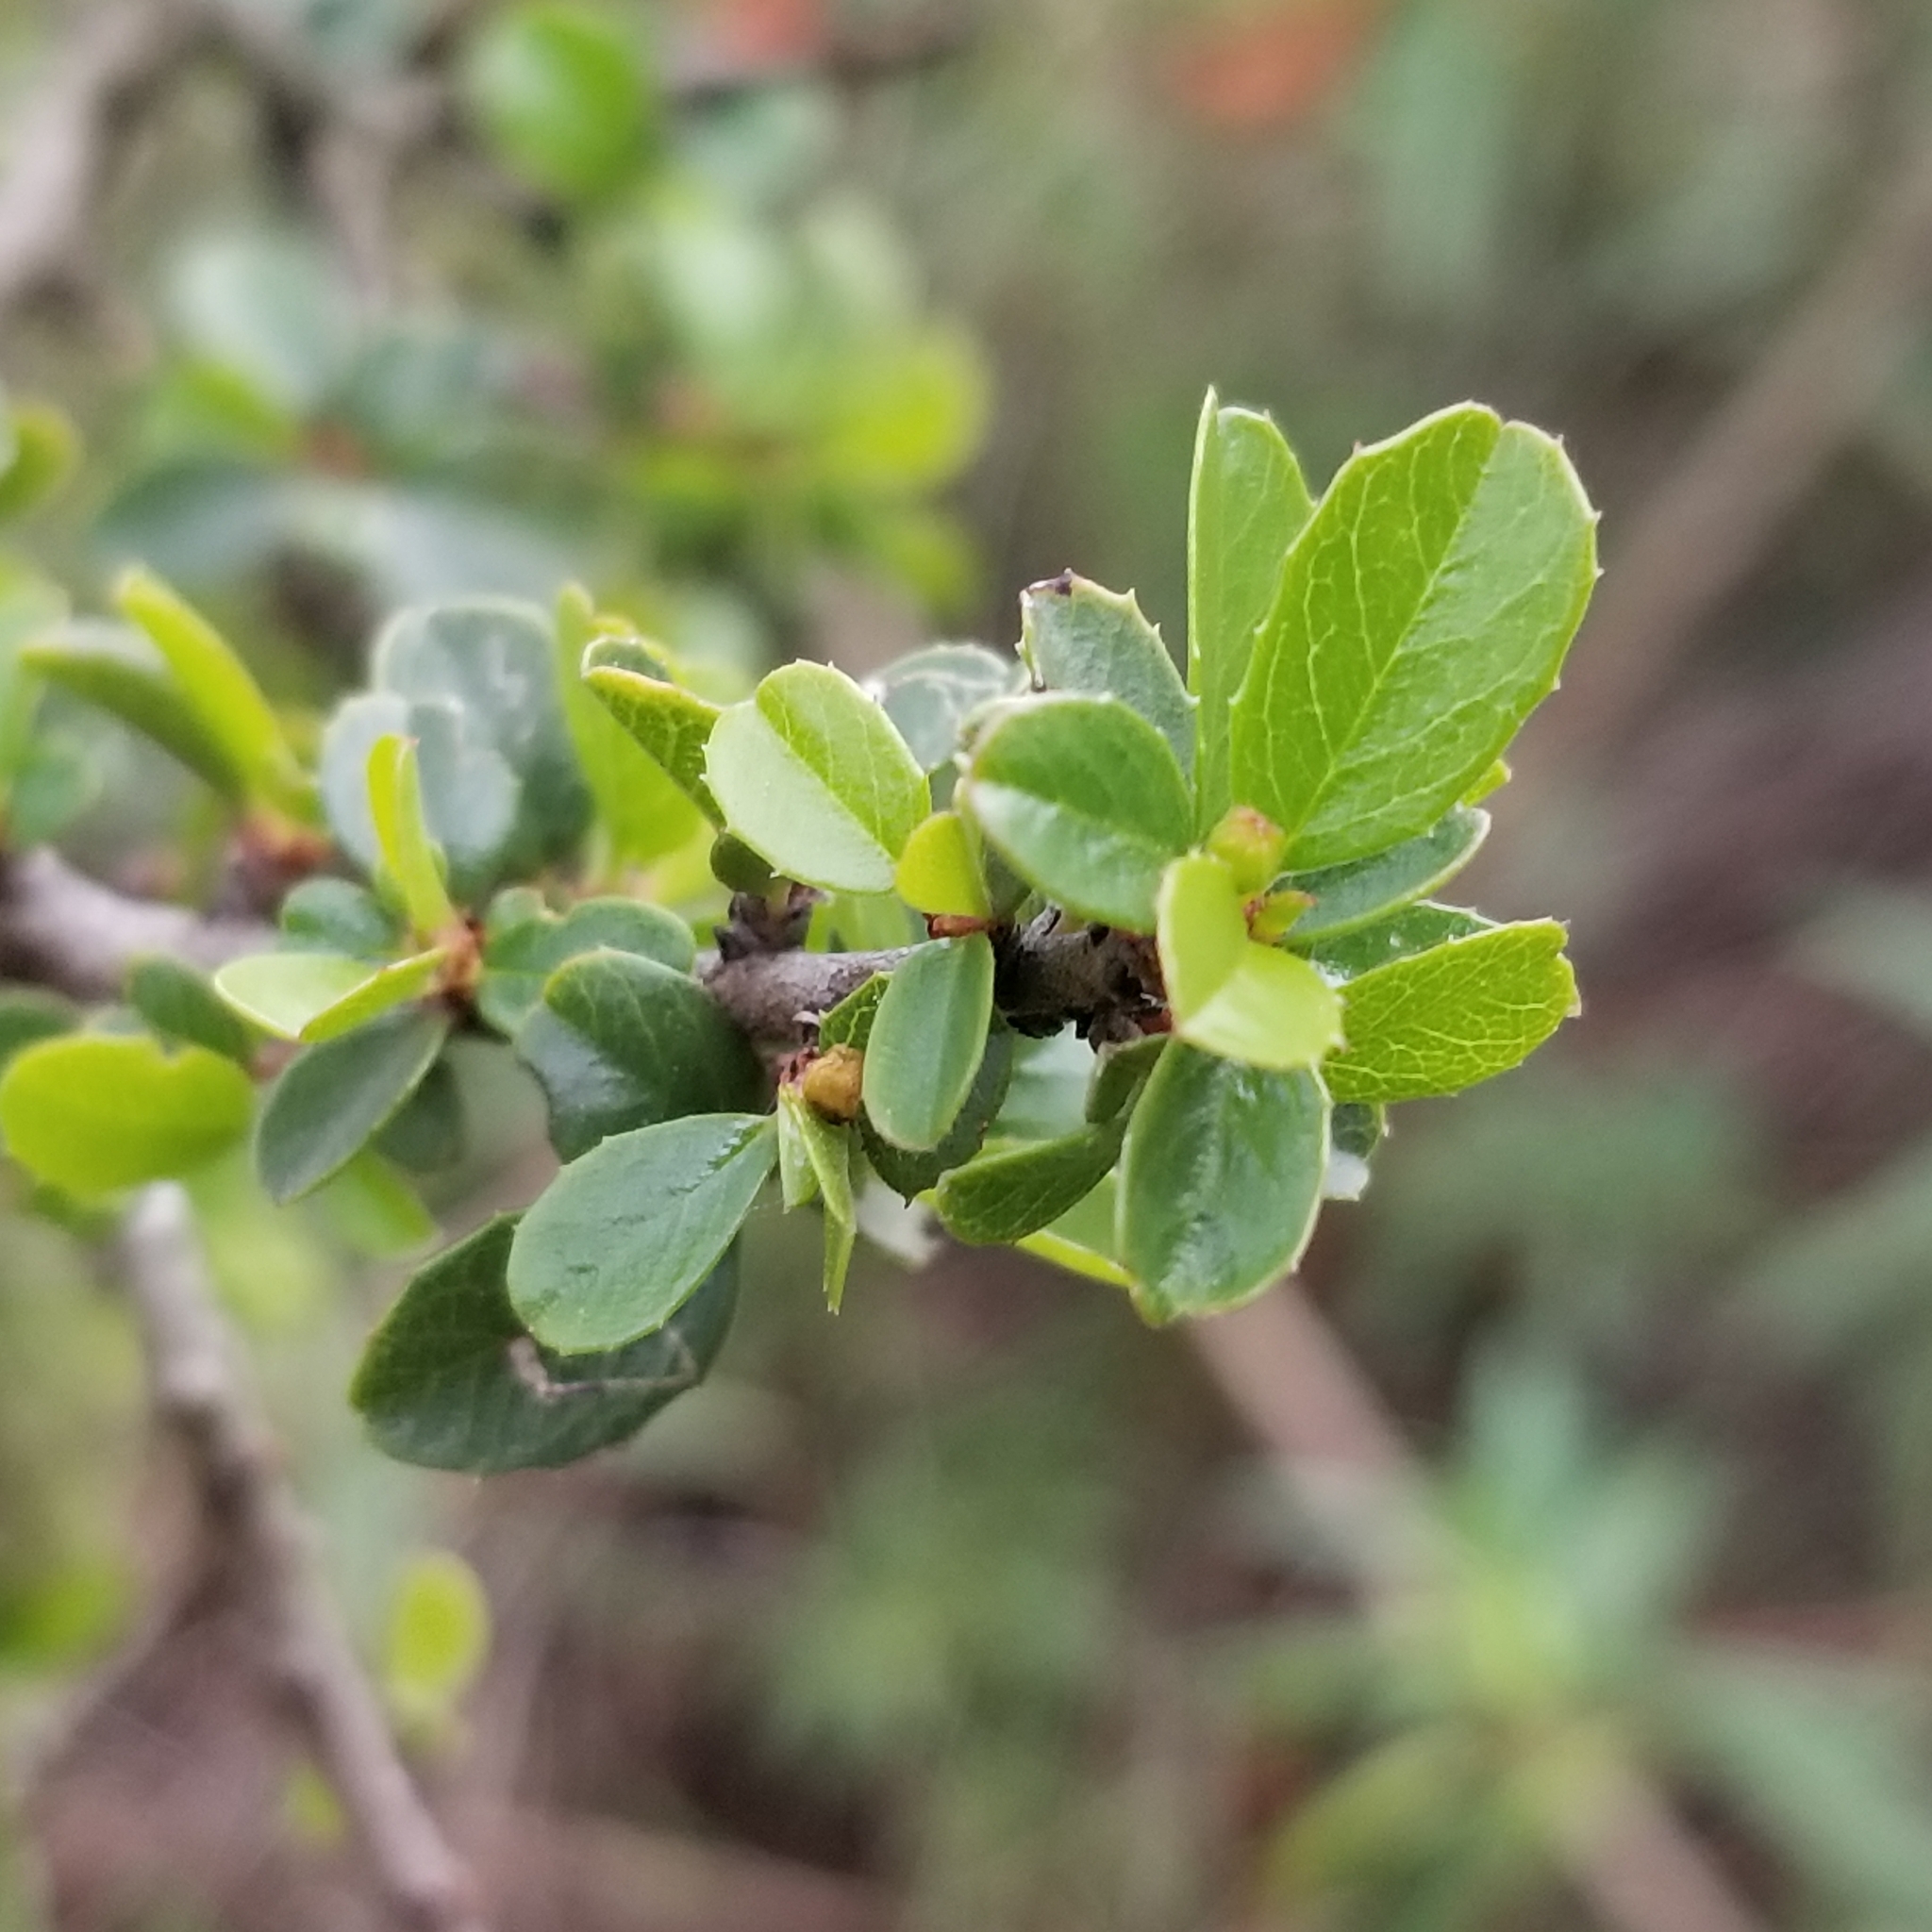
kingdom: Plantae
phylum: Tracheophyta
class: Magnoliopsida
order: Rosales
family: Rhamnaceae
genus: Endotropis
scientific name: Endotropis crocea
